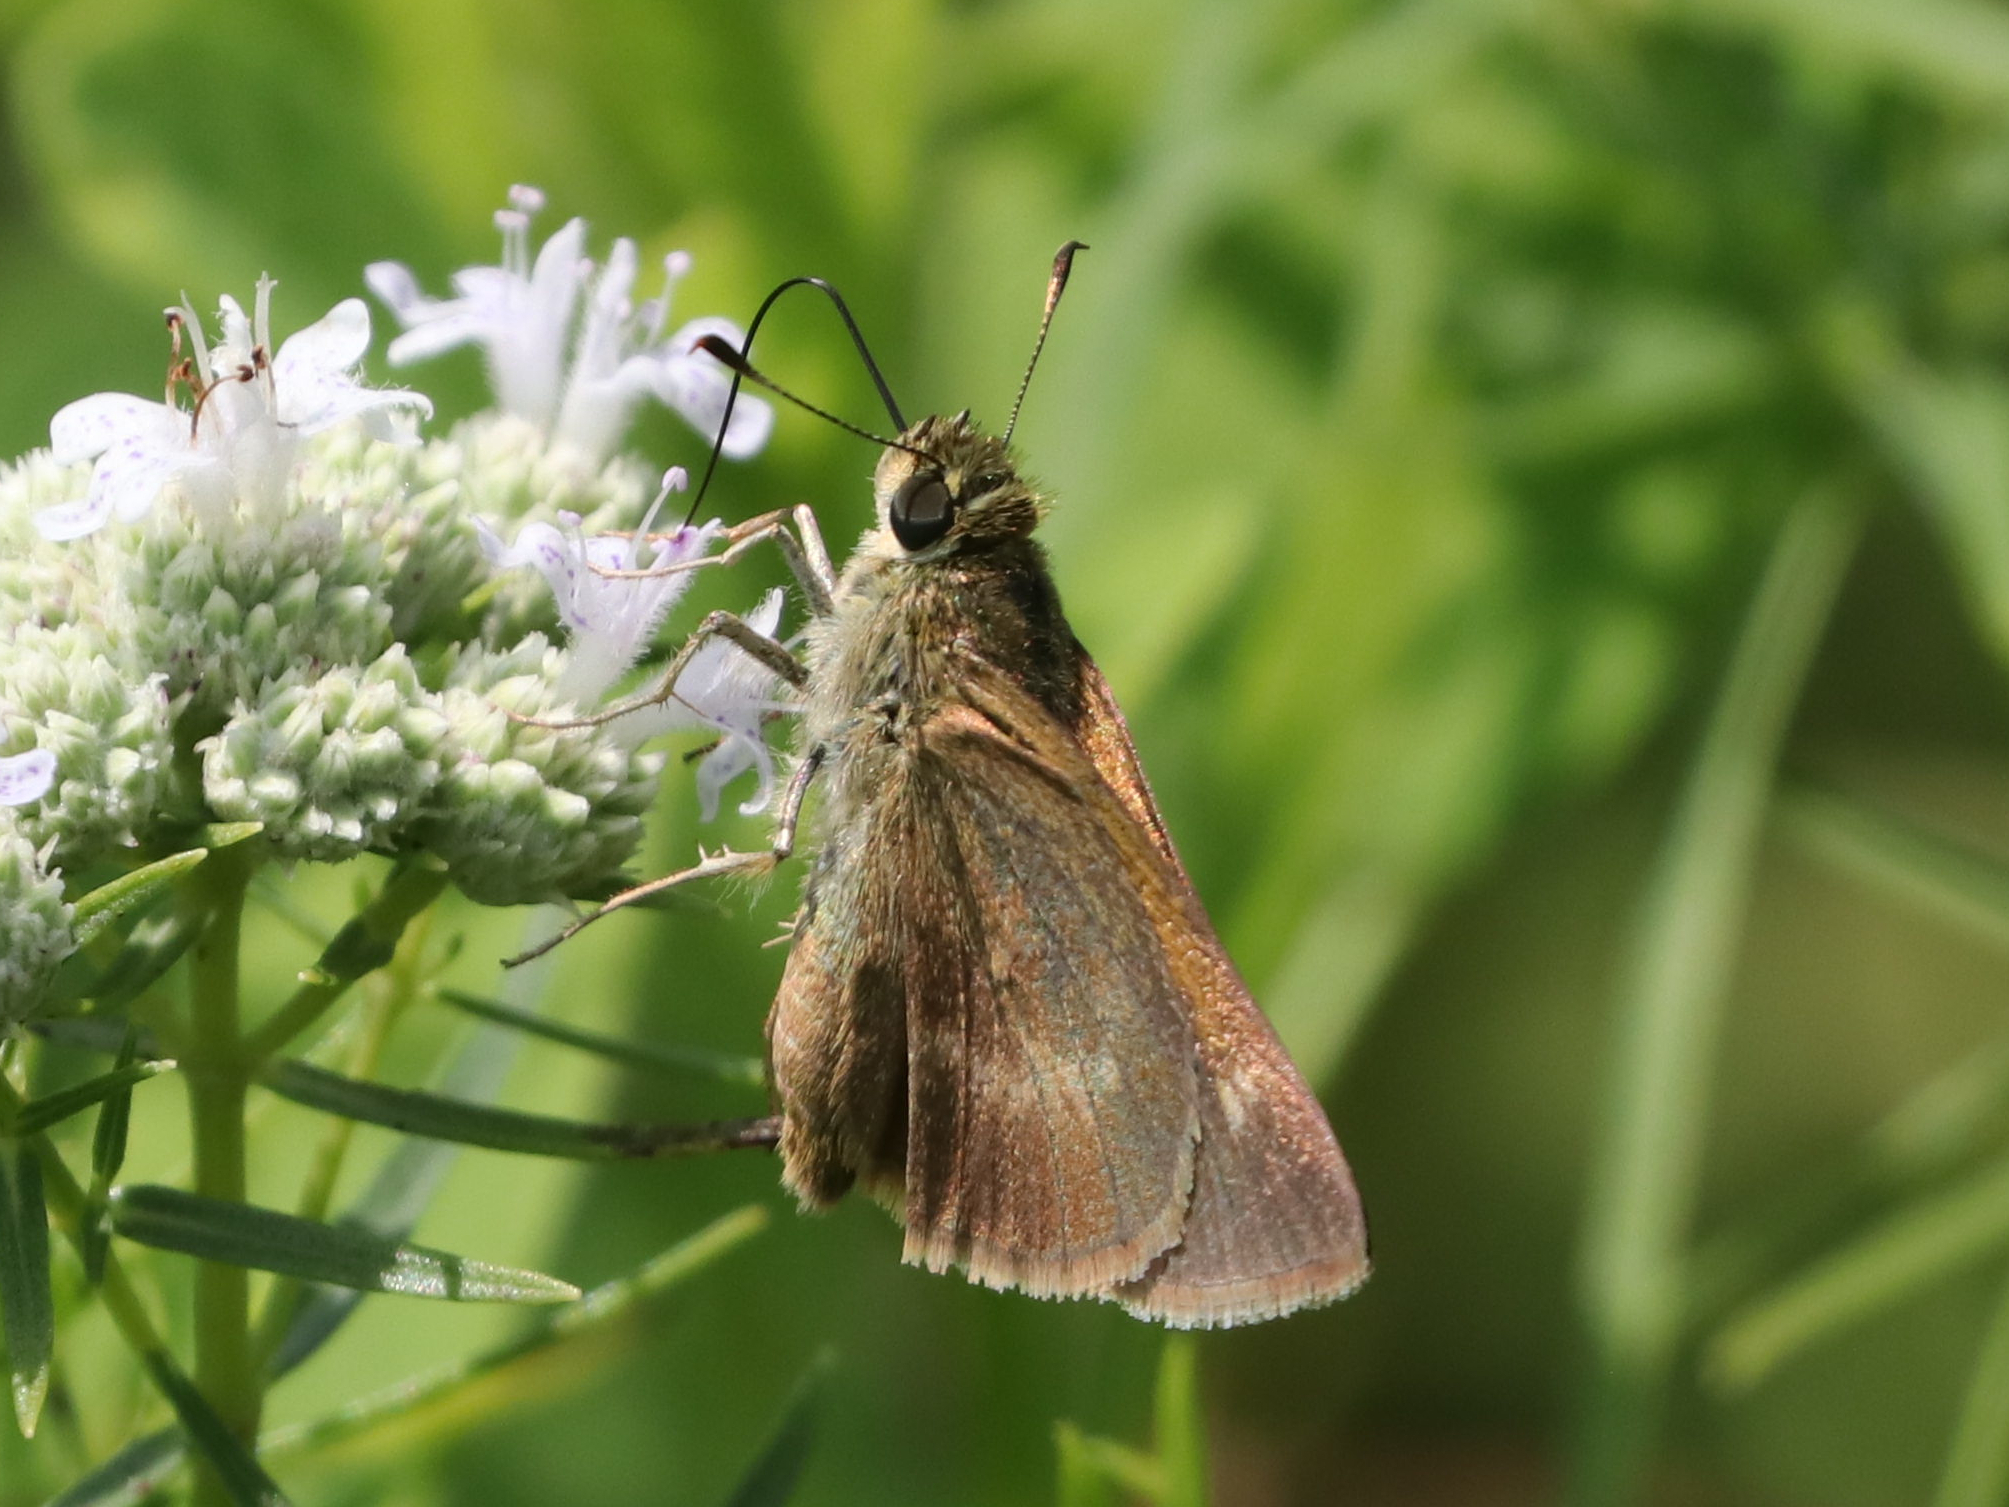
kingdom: Animalia
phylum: Arthropoda
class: Insecta
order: Lepidoptera
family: Hesperiidae
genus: Polites
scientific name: Polites egeremet
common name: Northern broken-dash
